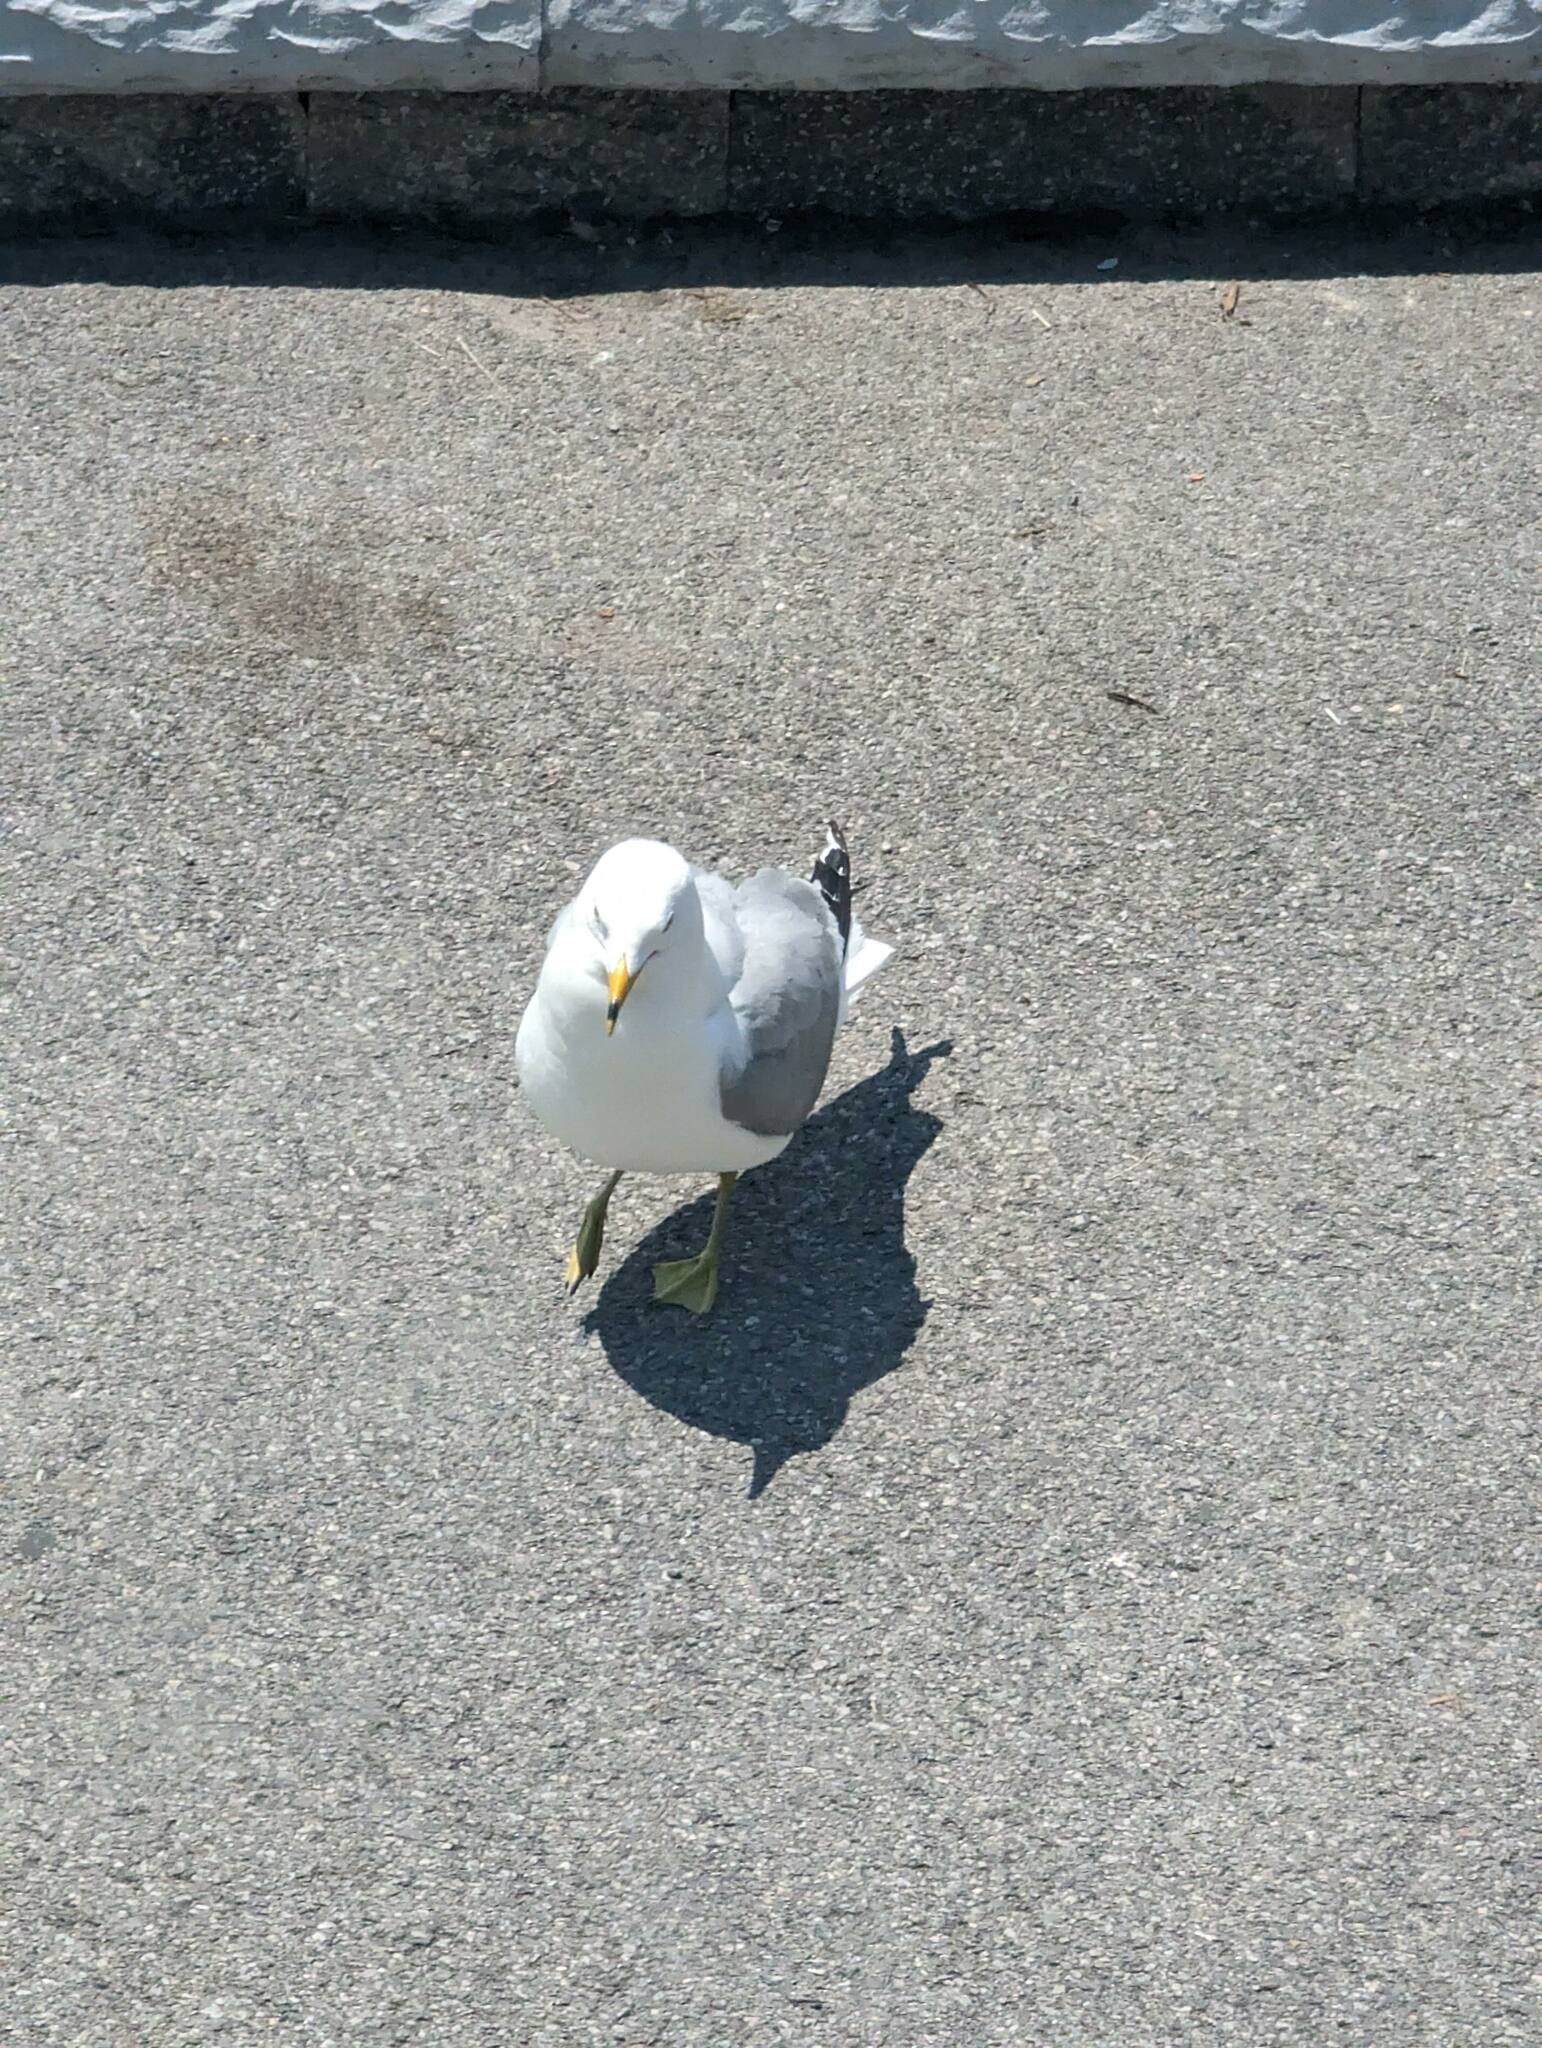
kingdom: Animalia
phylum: Chordata
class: Aves
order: Charadriiformes
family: Laridae
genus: Larus
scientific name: Larus delawarensis
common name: Ring-billed gull
